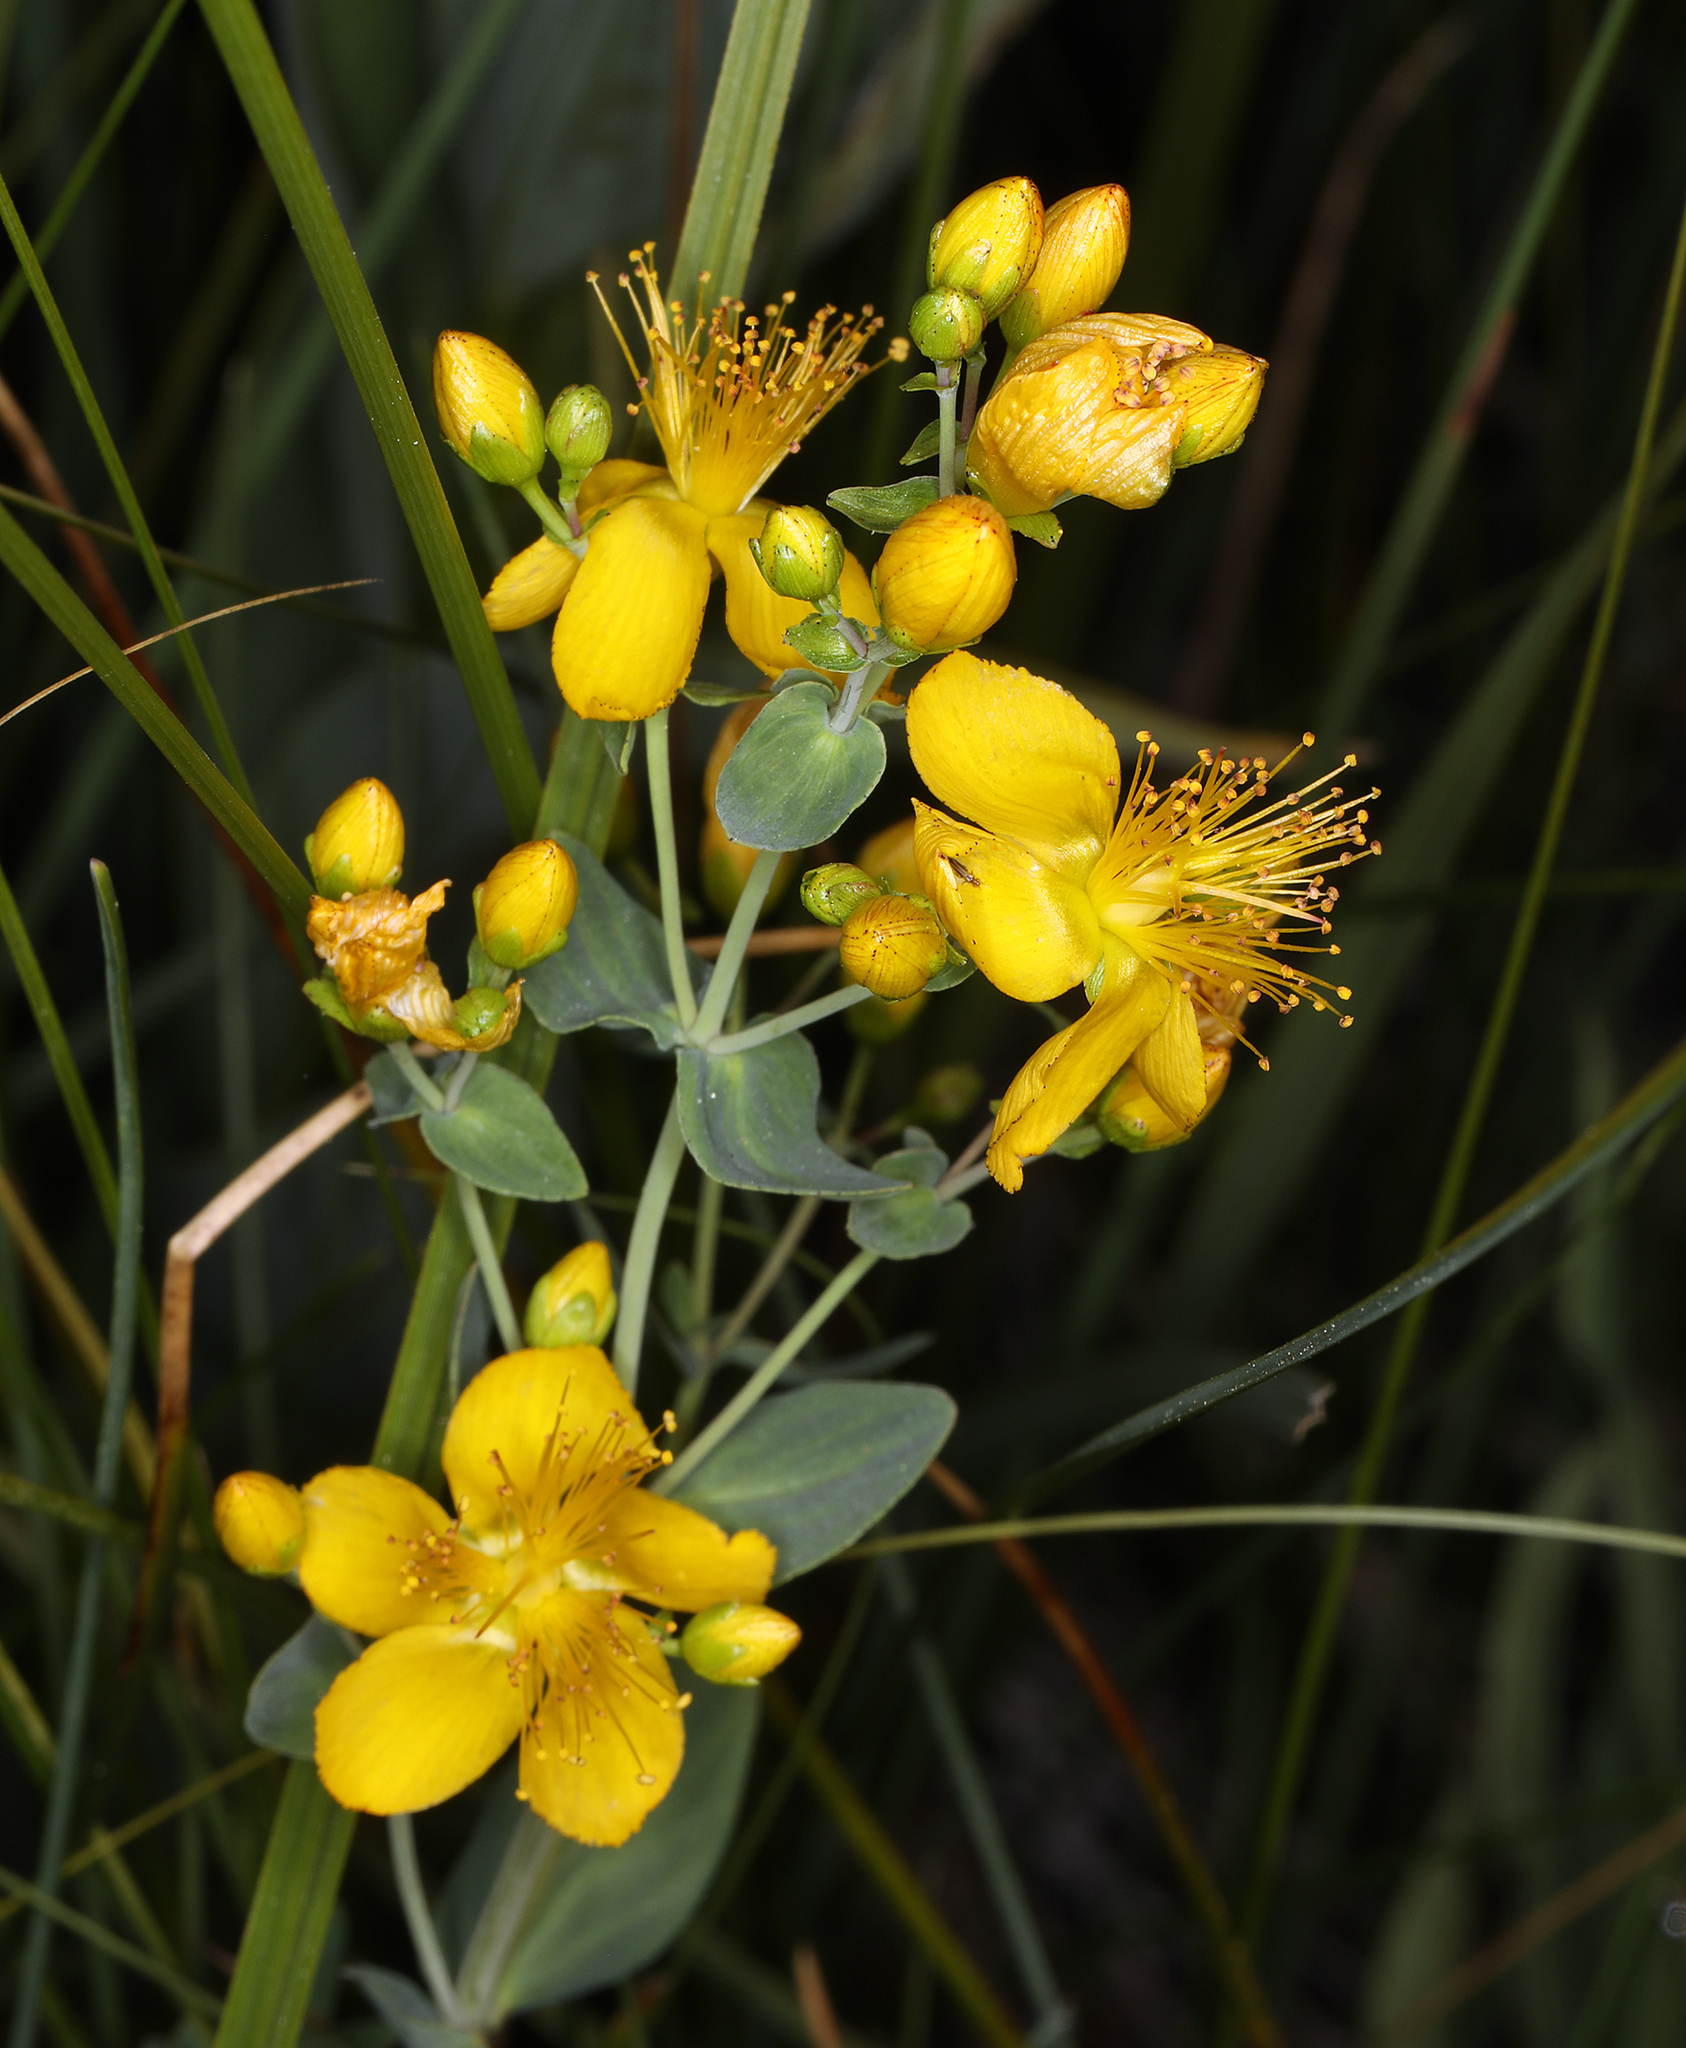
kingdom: Plantae
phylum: Tracheophyta
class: Magnoliopsida
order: Malpighiales
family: Hypericaceae
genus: Hypericum
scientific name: Hypericum scouleri
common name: Scouler's st. john's-wort
